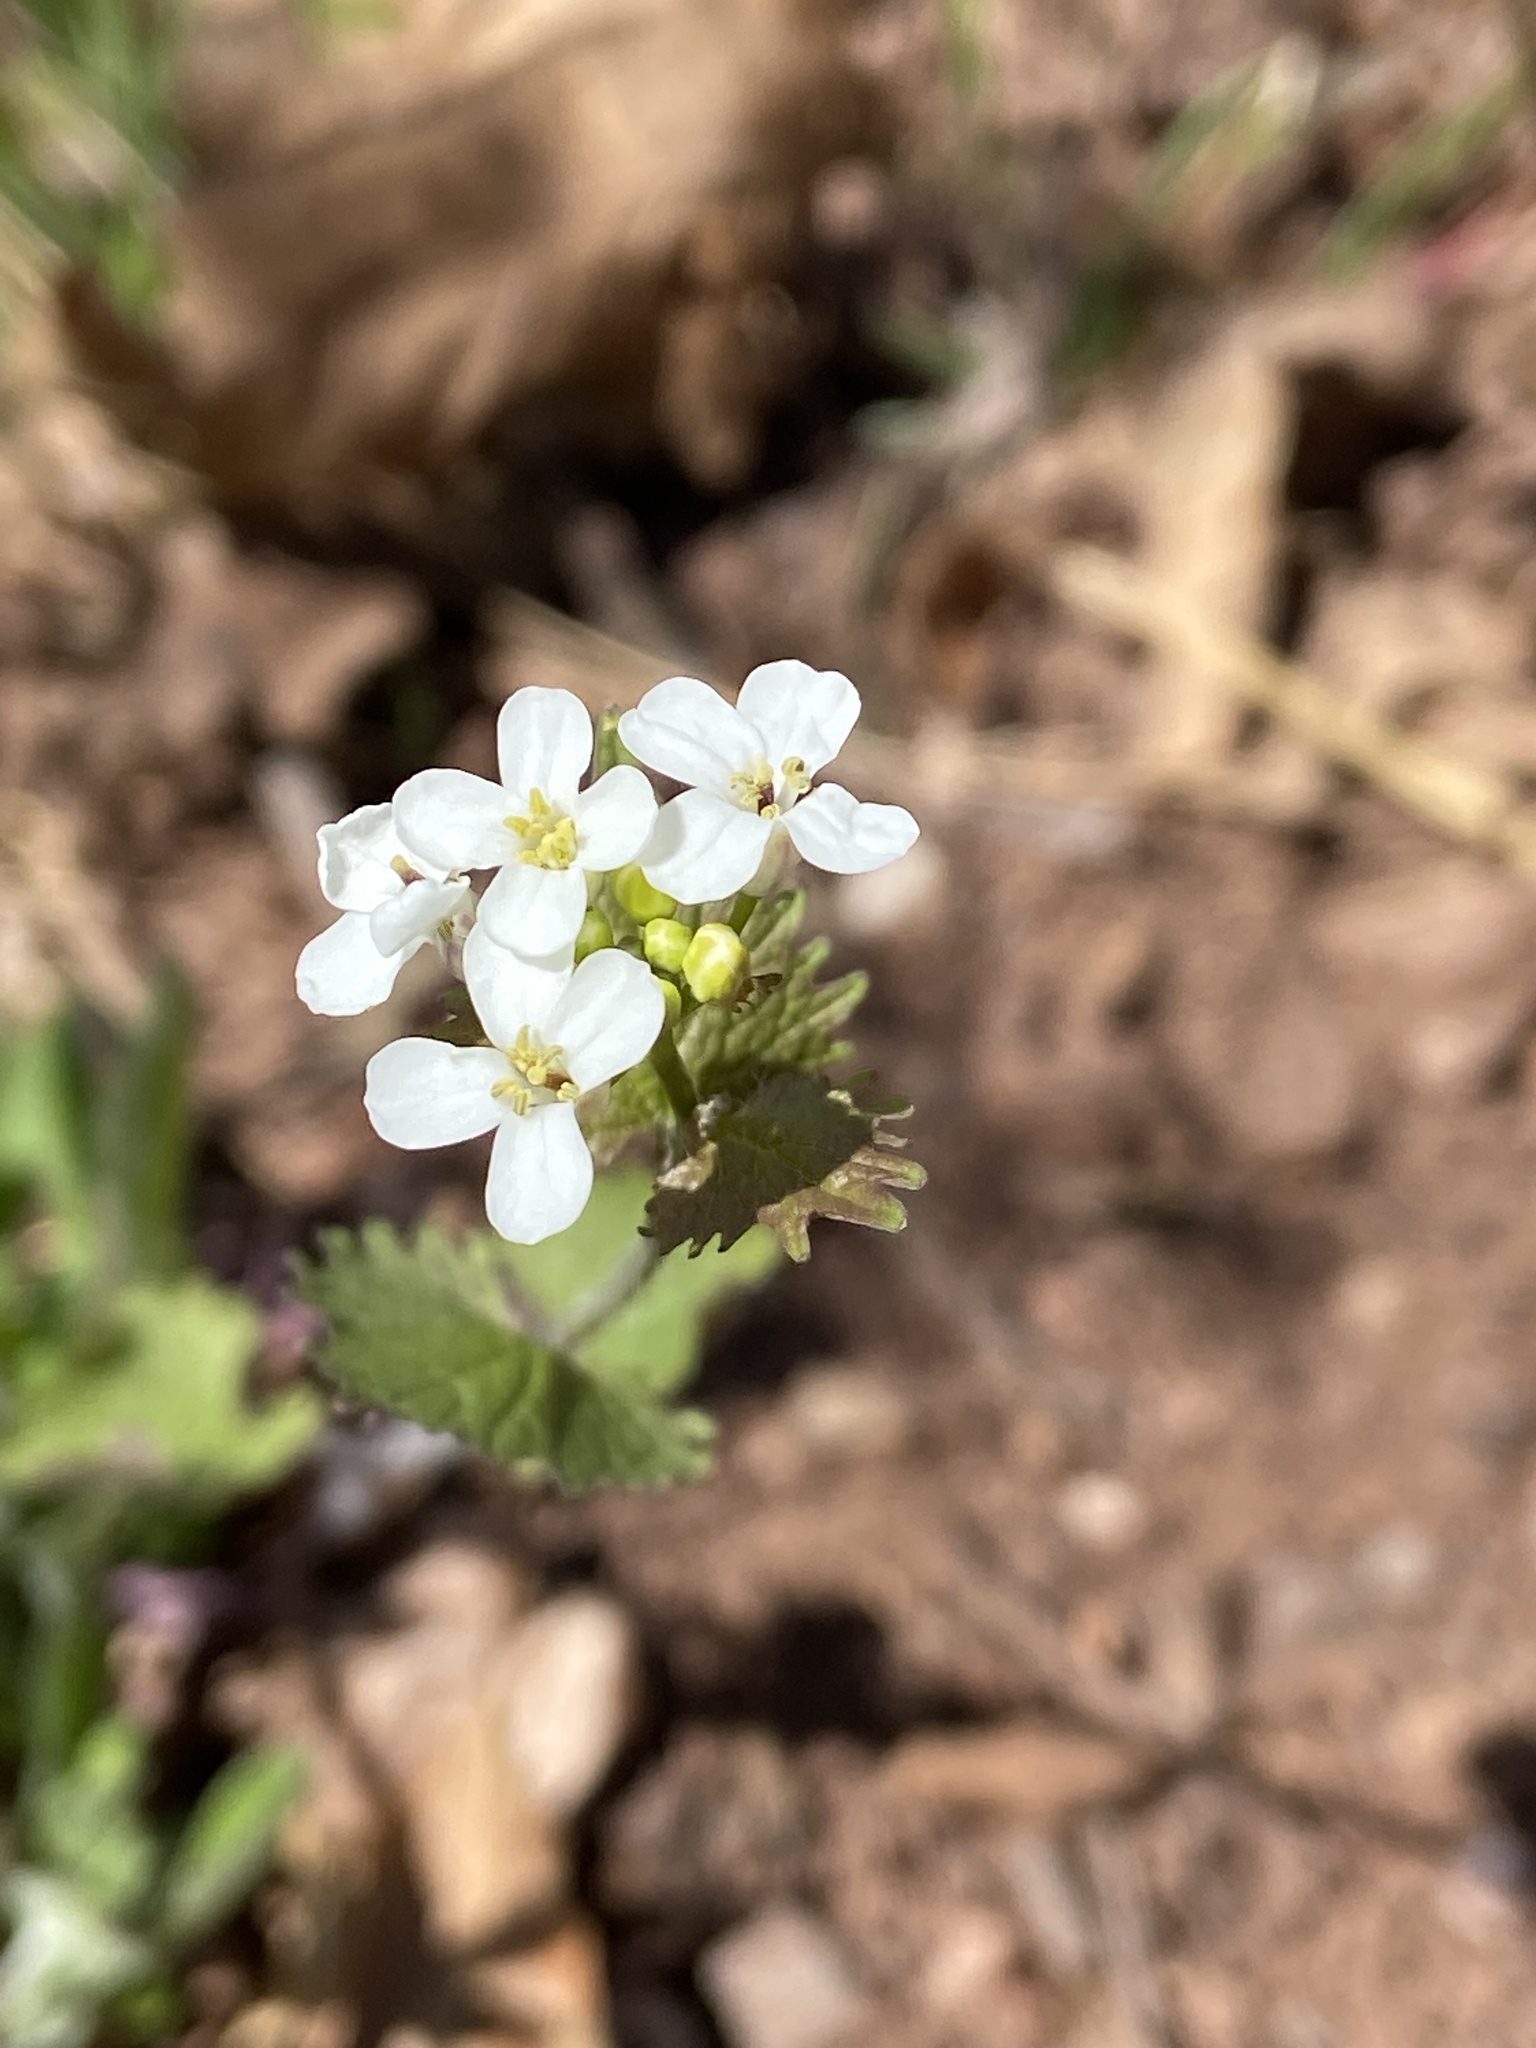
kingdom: Plantae
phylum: Tracheophyta
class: Magnoliopsida
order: Brassicales
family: Brassicaceae
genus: Alliaria
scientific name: Alliaria petiolata
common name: Garlic mustard
